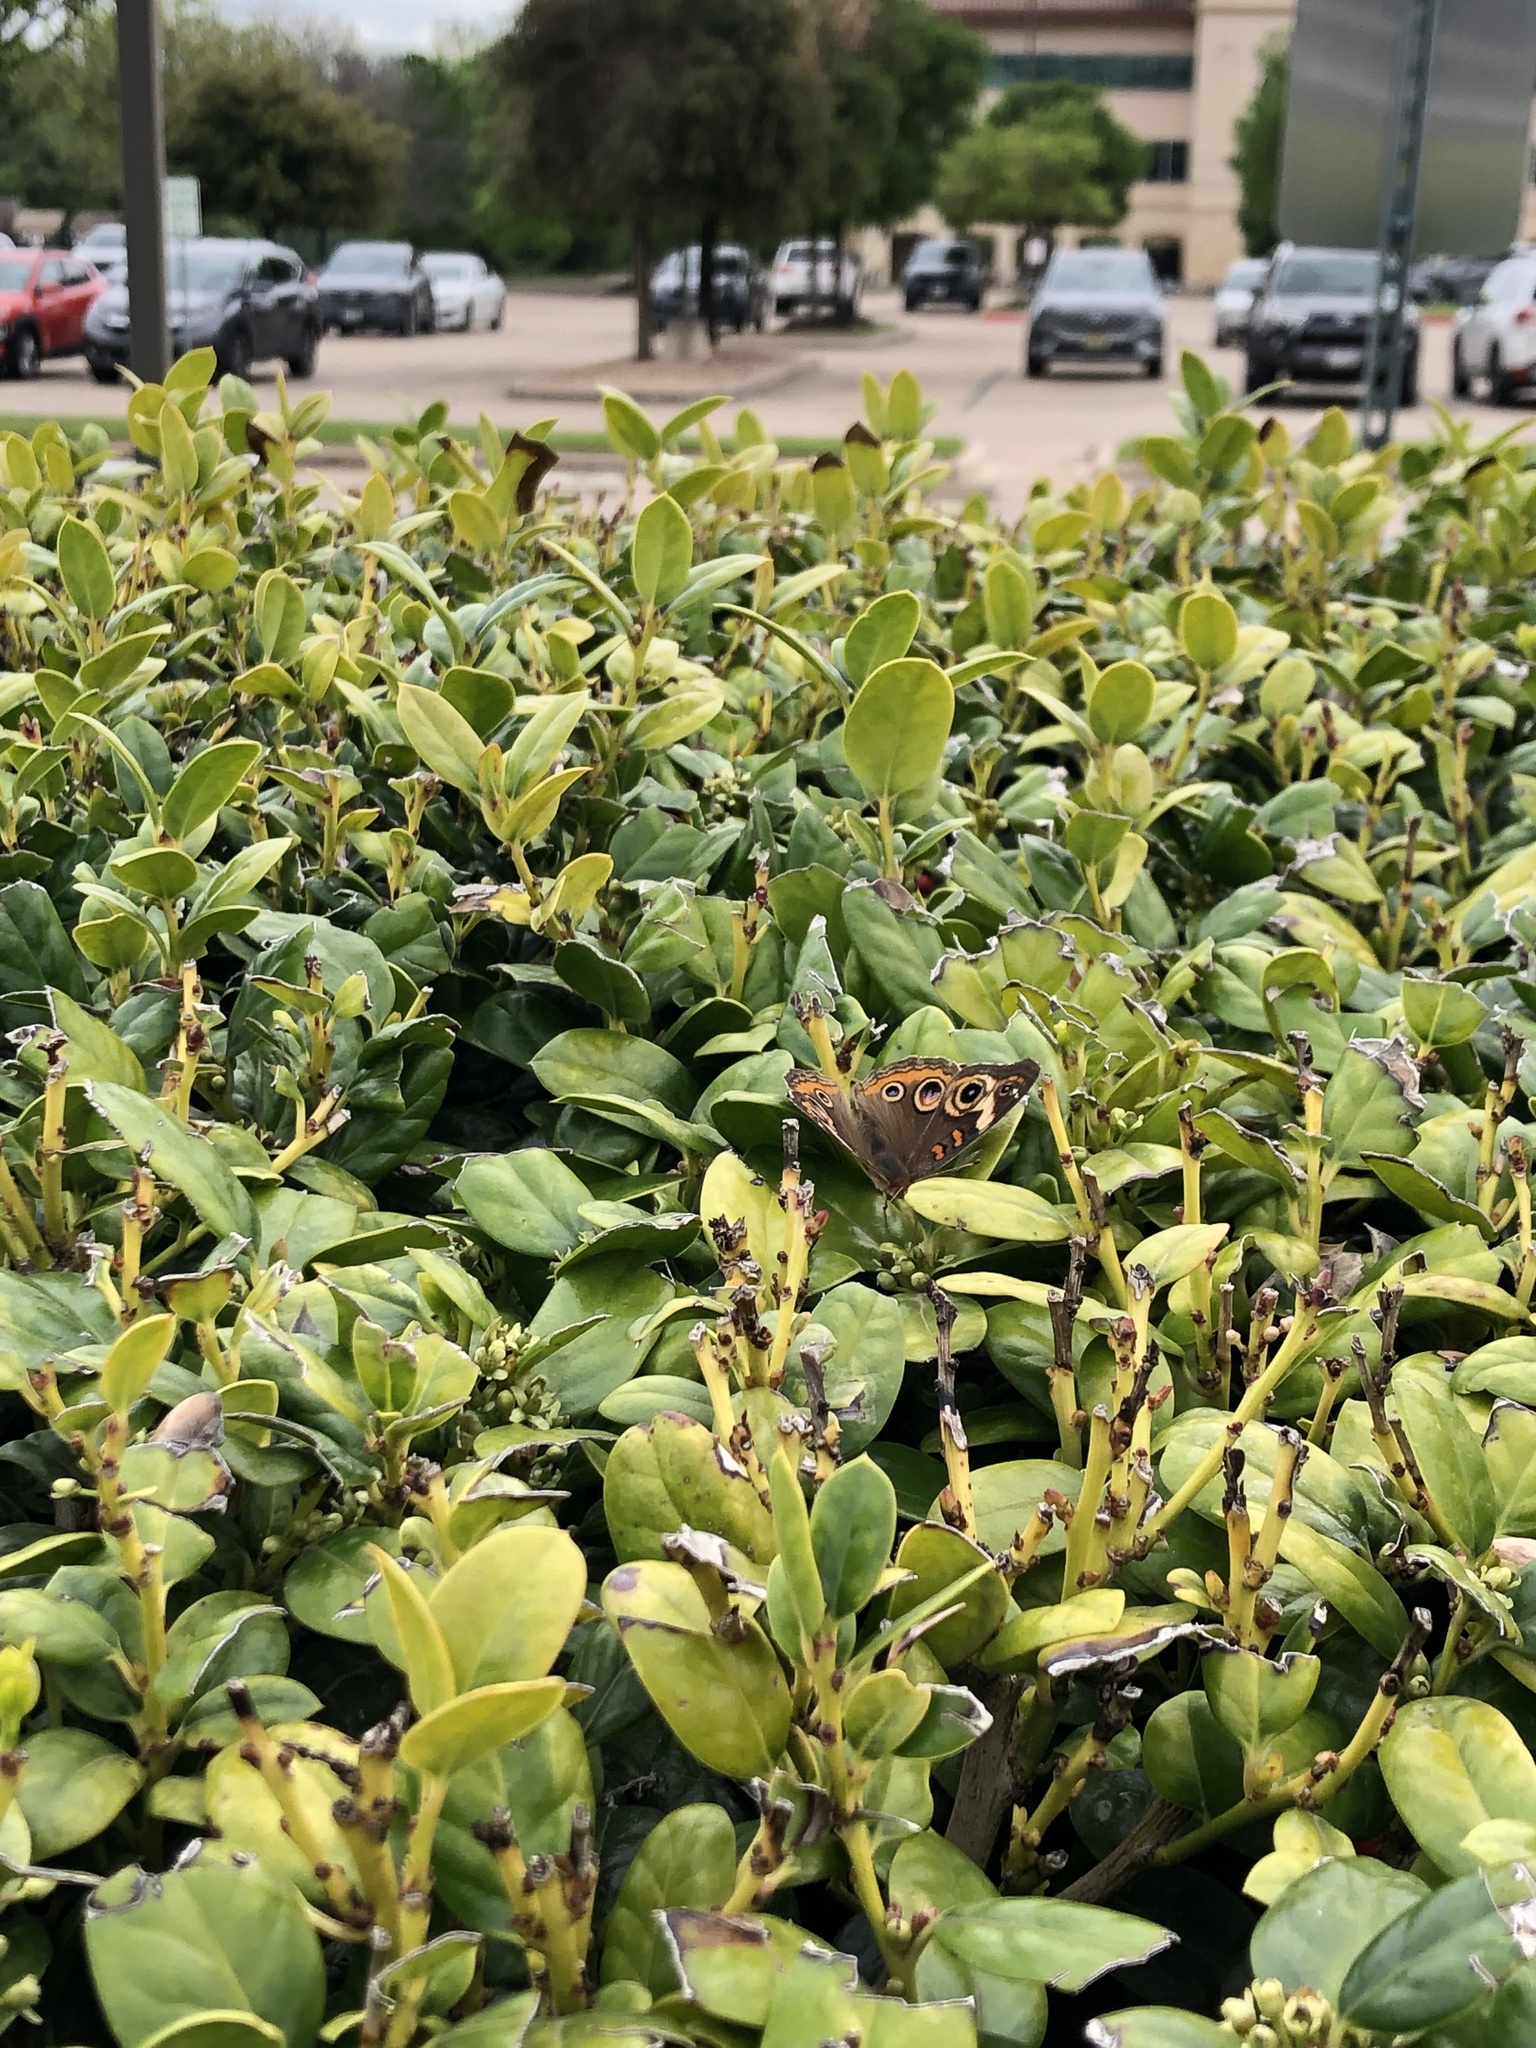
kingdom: Animalia
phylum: Arthropoda
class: Insecta
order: Lepidoptera
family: Nymphalidae
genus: Junonia
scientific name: Junonia coenia
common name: Common buckeye
